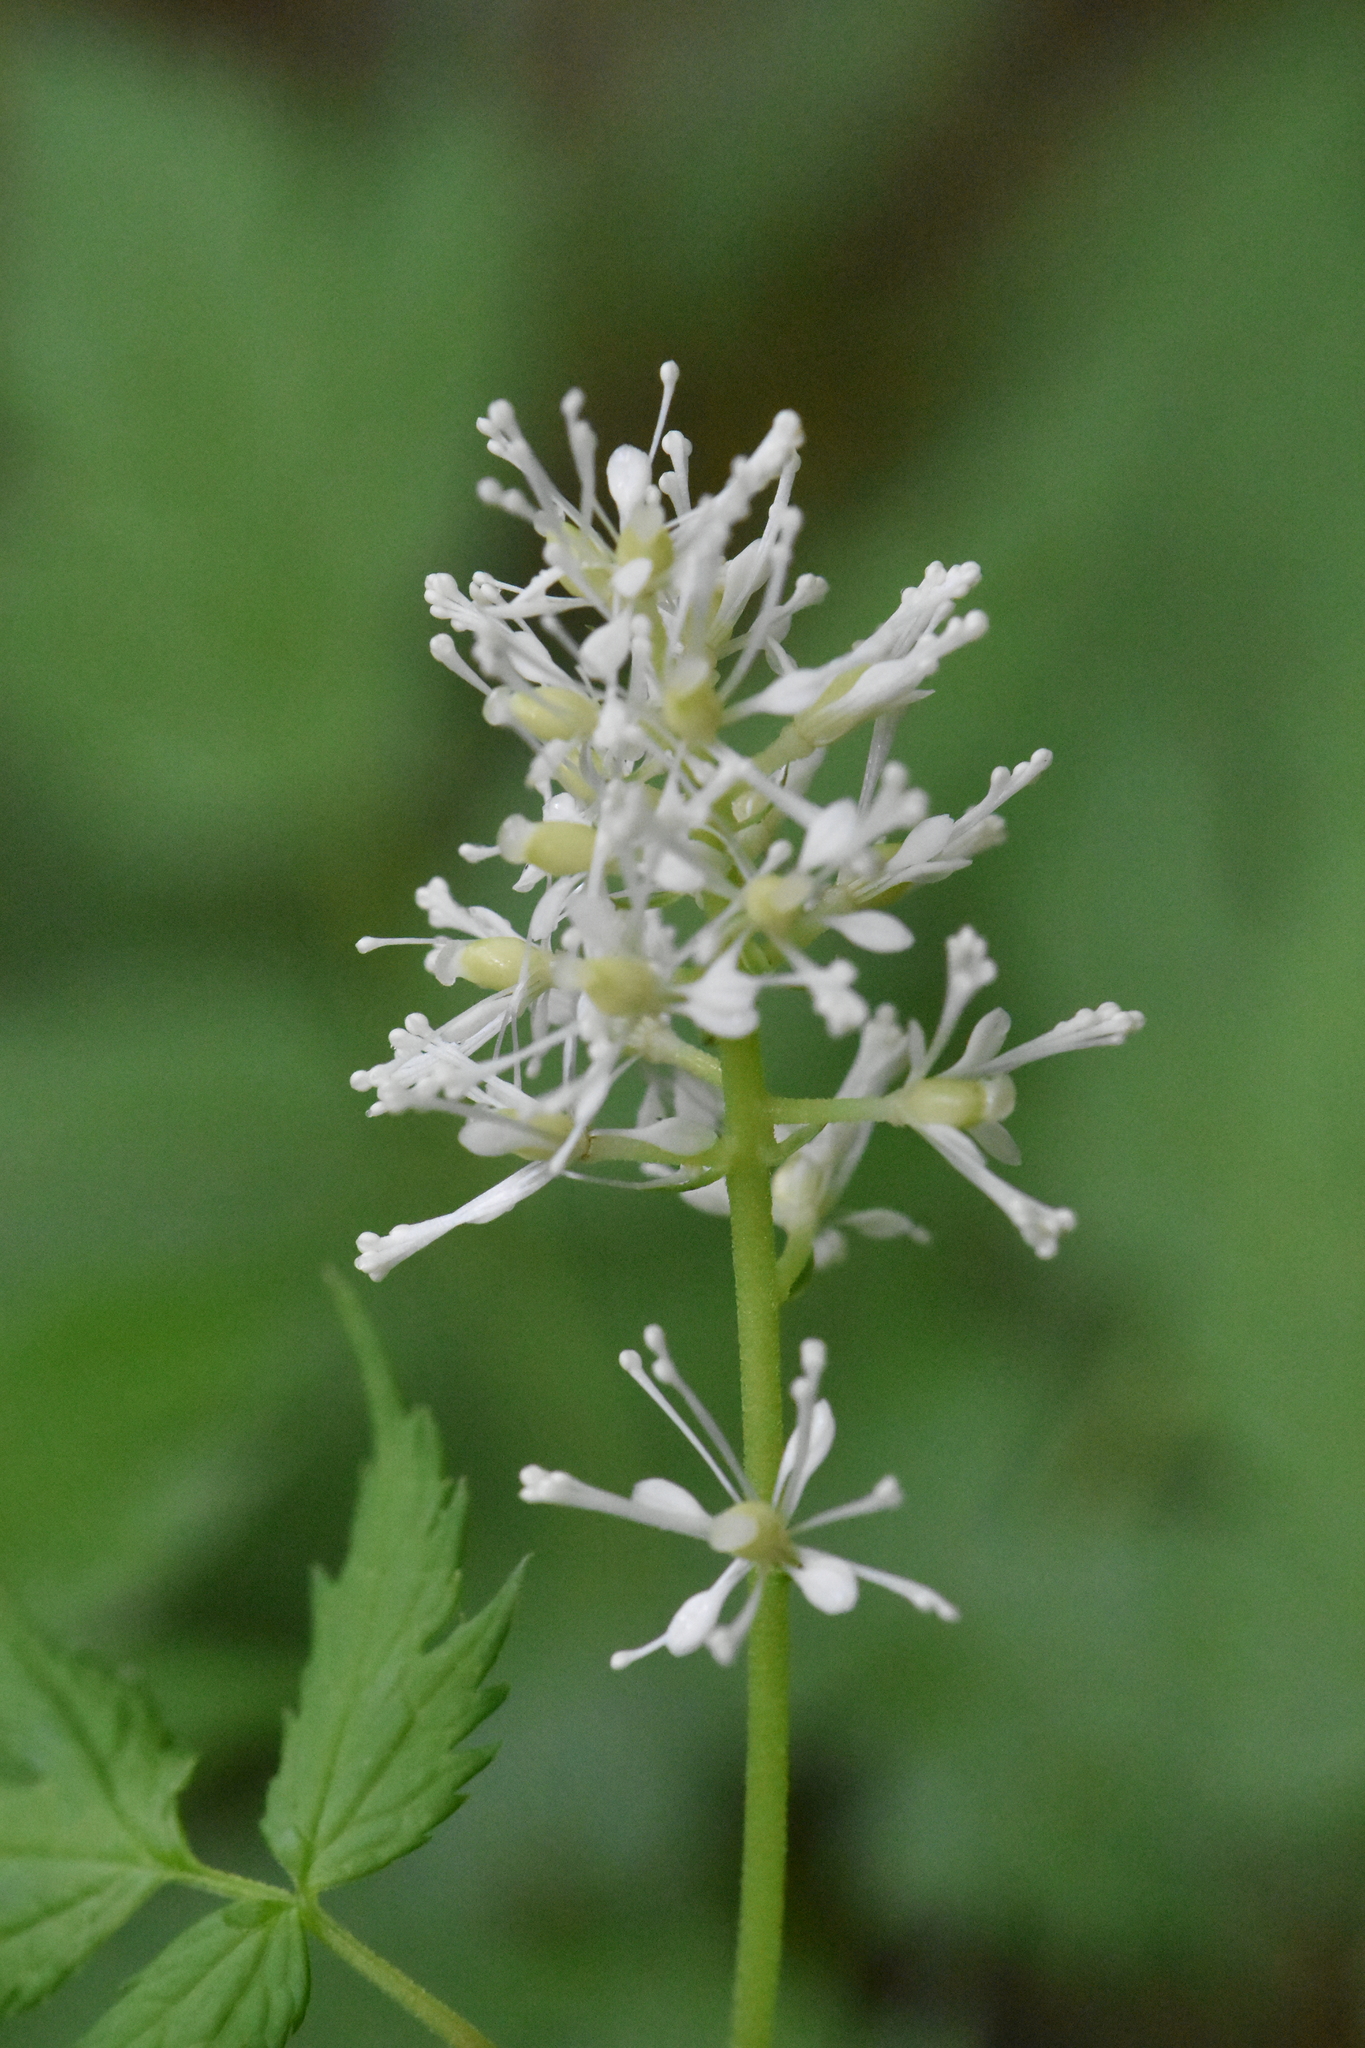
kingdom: Plantae
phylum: Tracheophyta
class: Magnoliopsida
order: Ranunculales
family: Ranunculaceae
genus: Actaea
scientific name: Actaea spicata
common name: Baneberry
